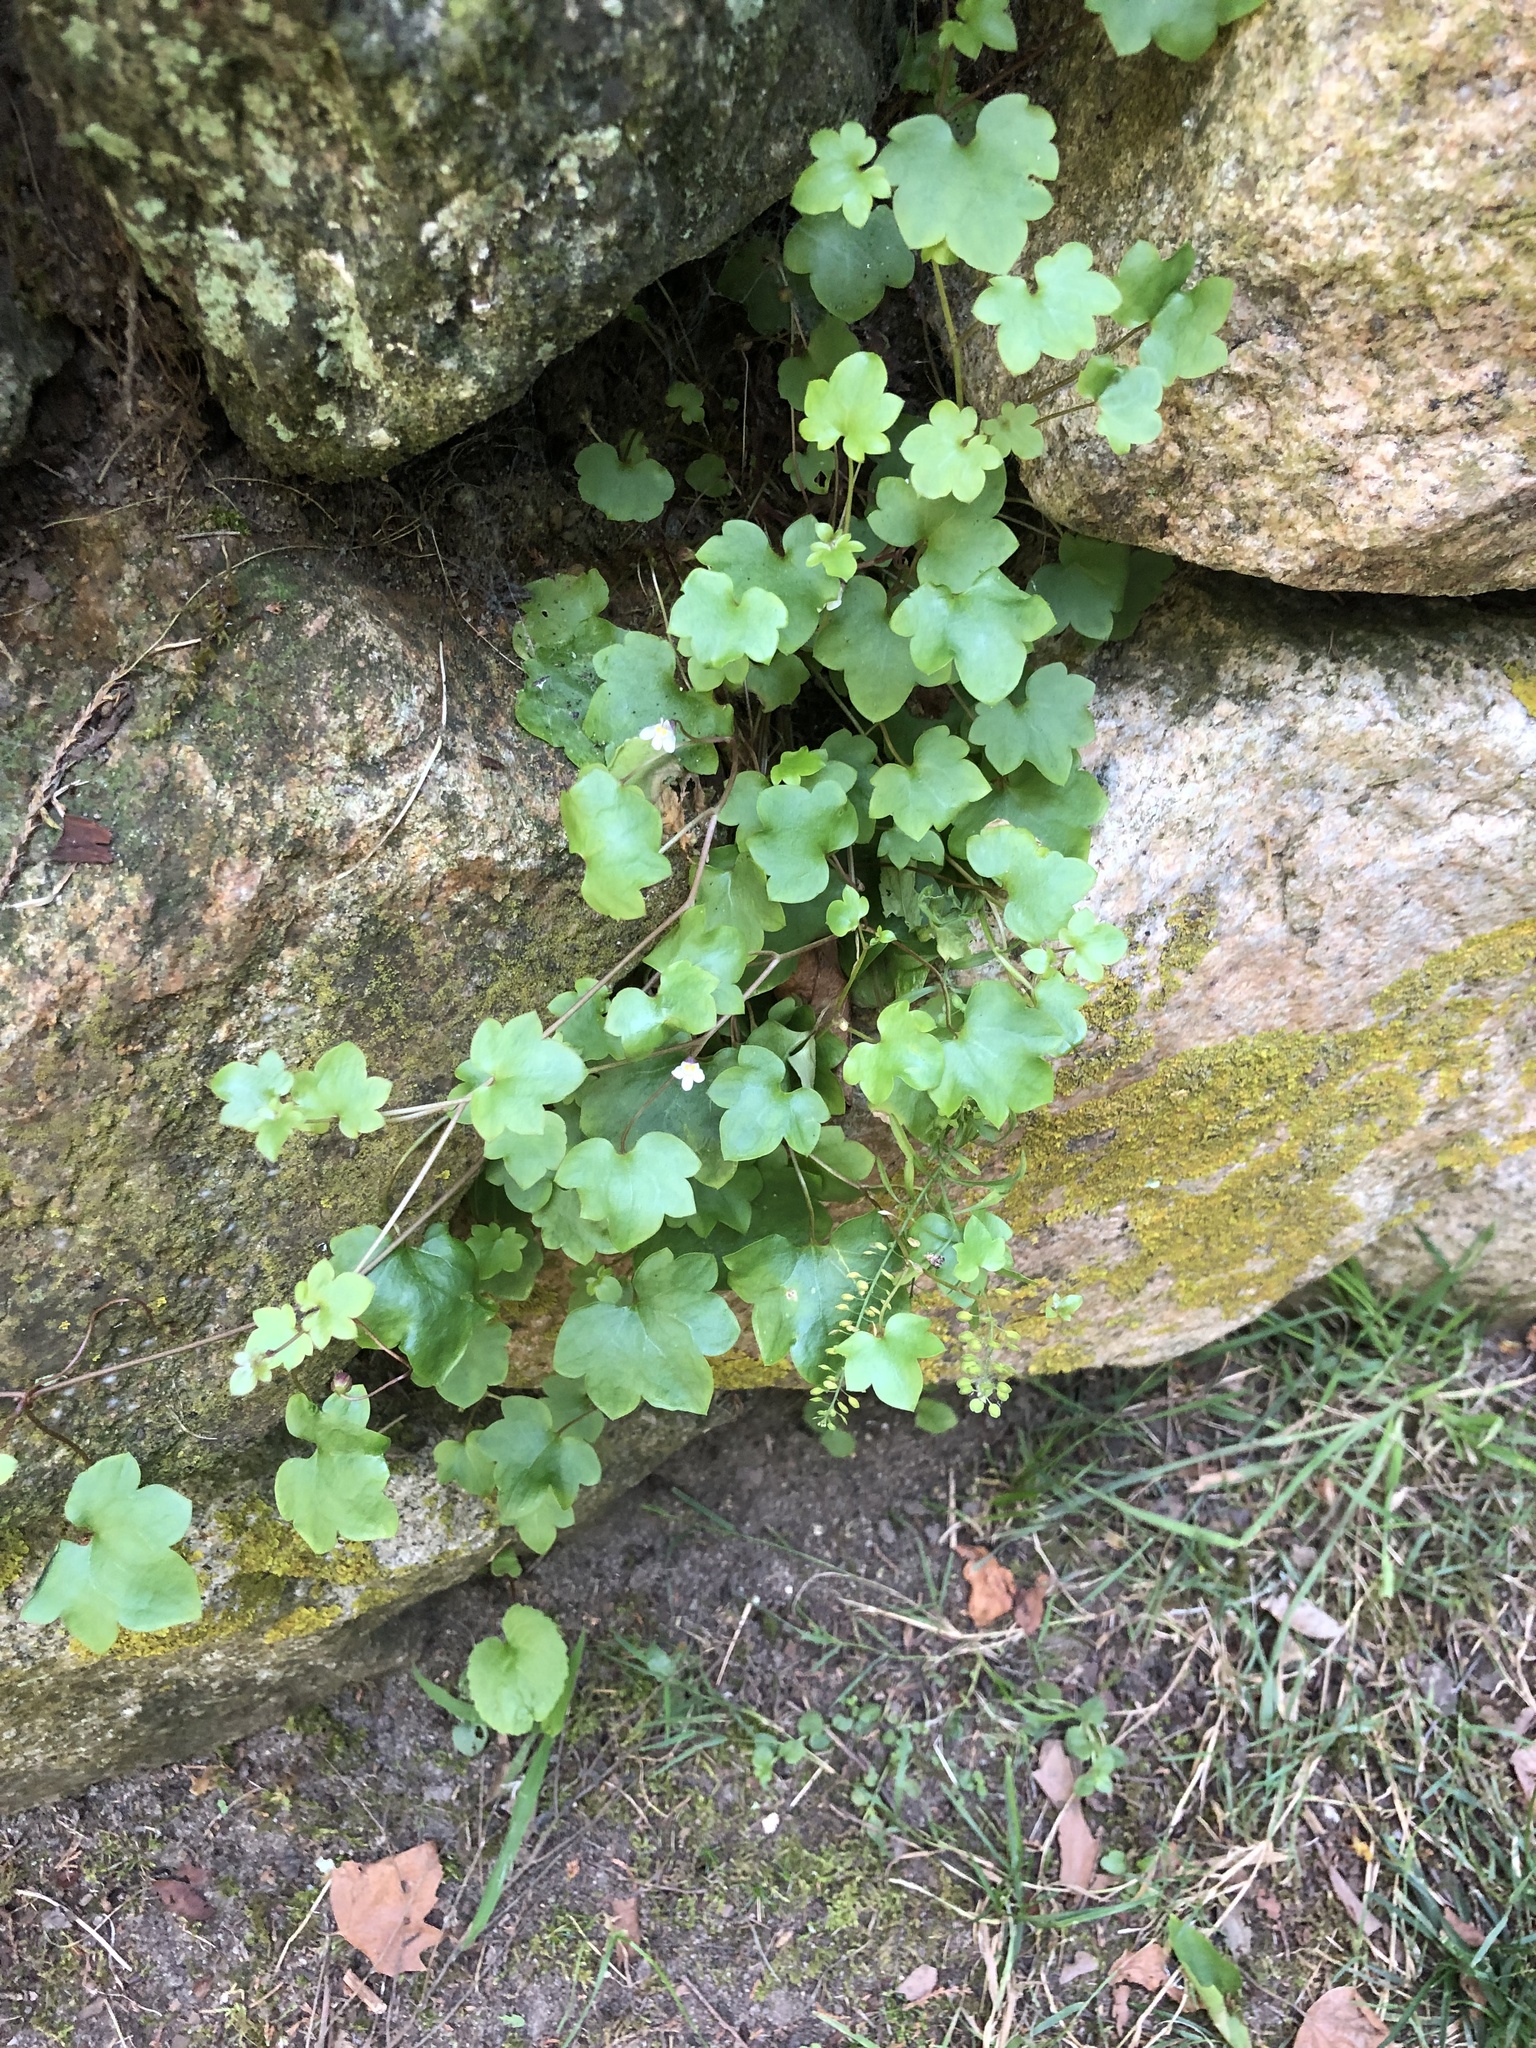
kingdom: Plantae
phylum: Tracheophyta
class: Magnoliopsida
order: Lamiales
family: Plantaginaceae
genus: Cymbalaria
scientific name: Cymbalaria muralis
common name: Ivy-leaved toadflax
